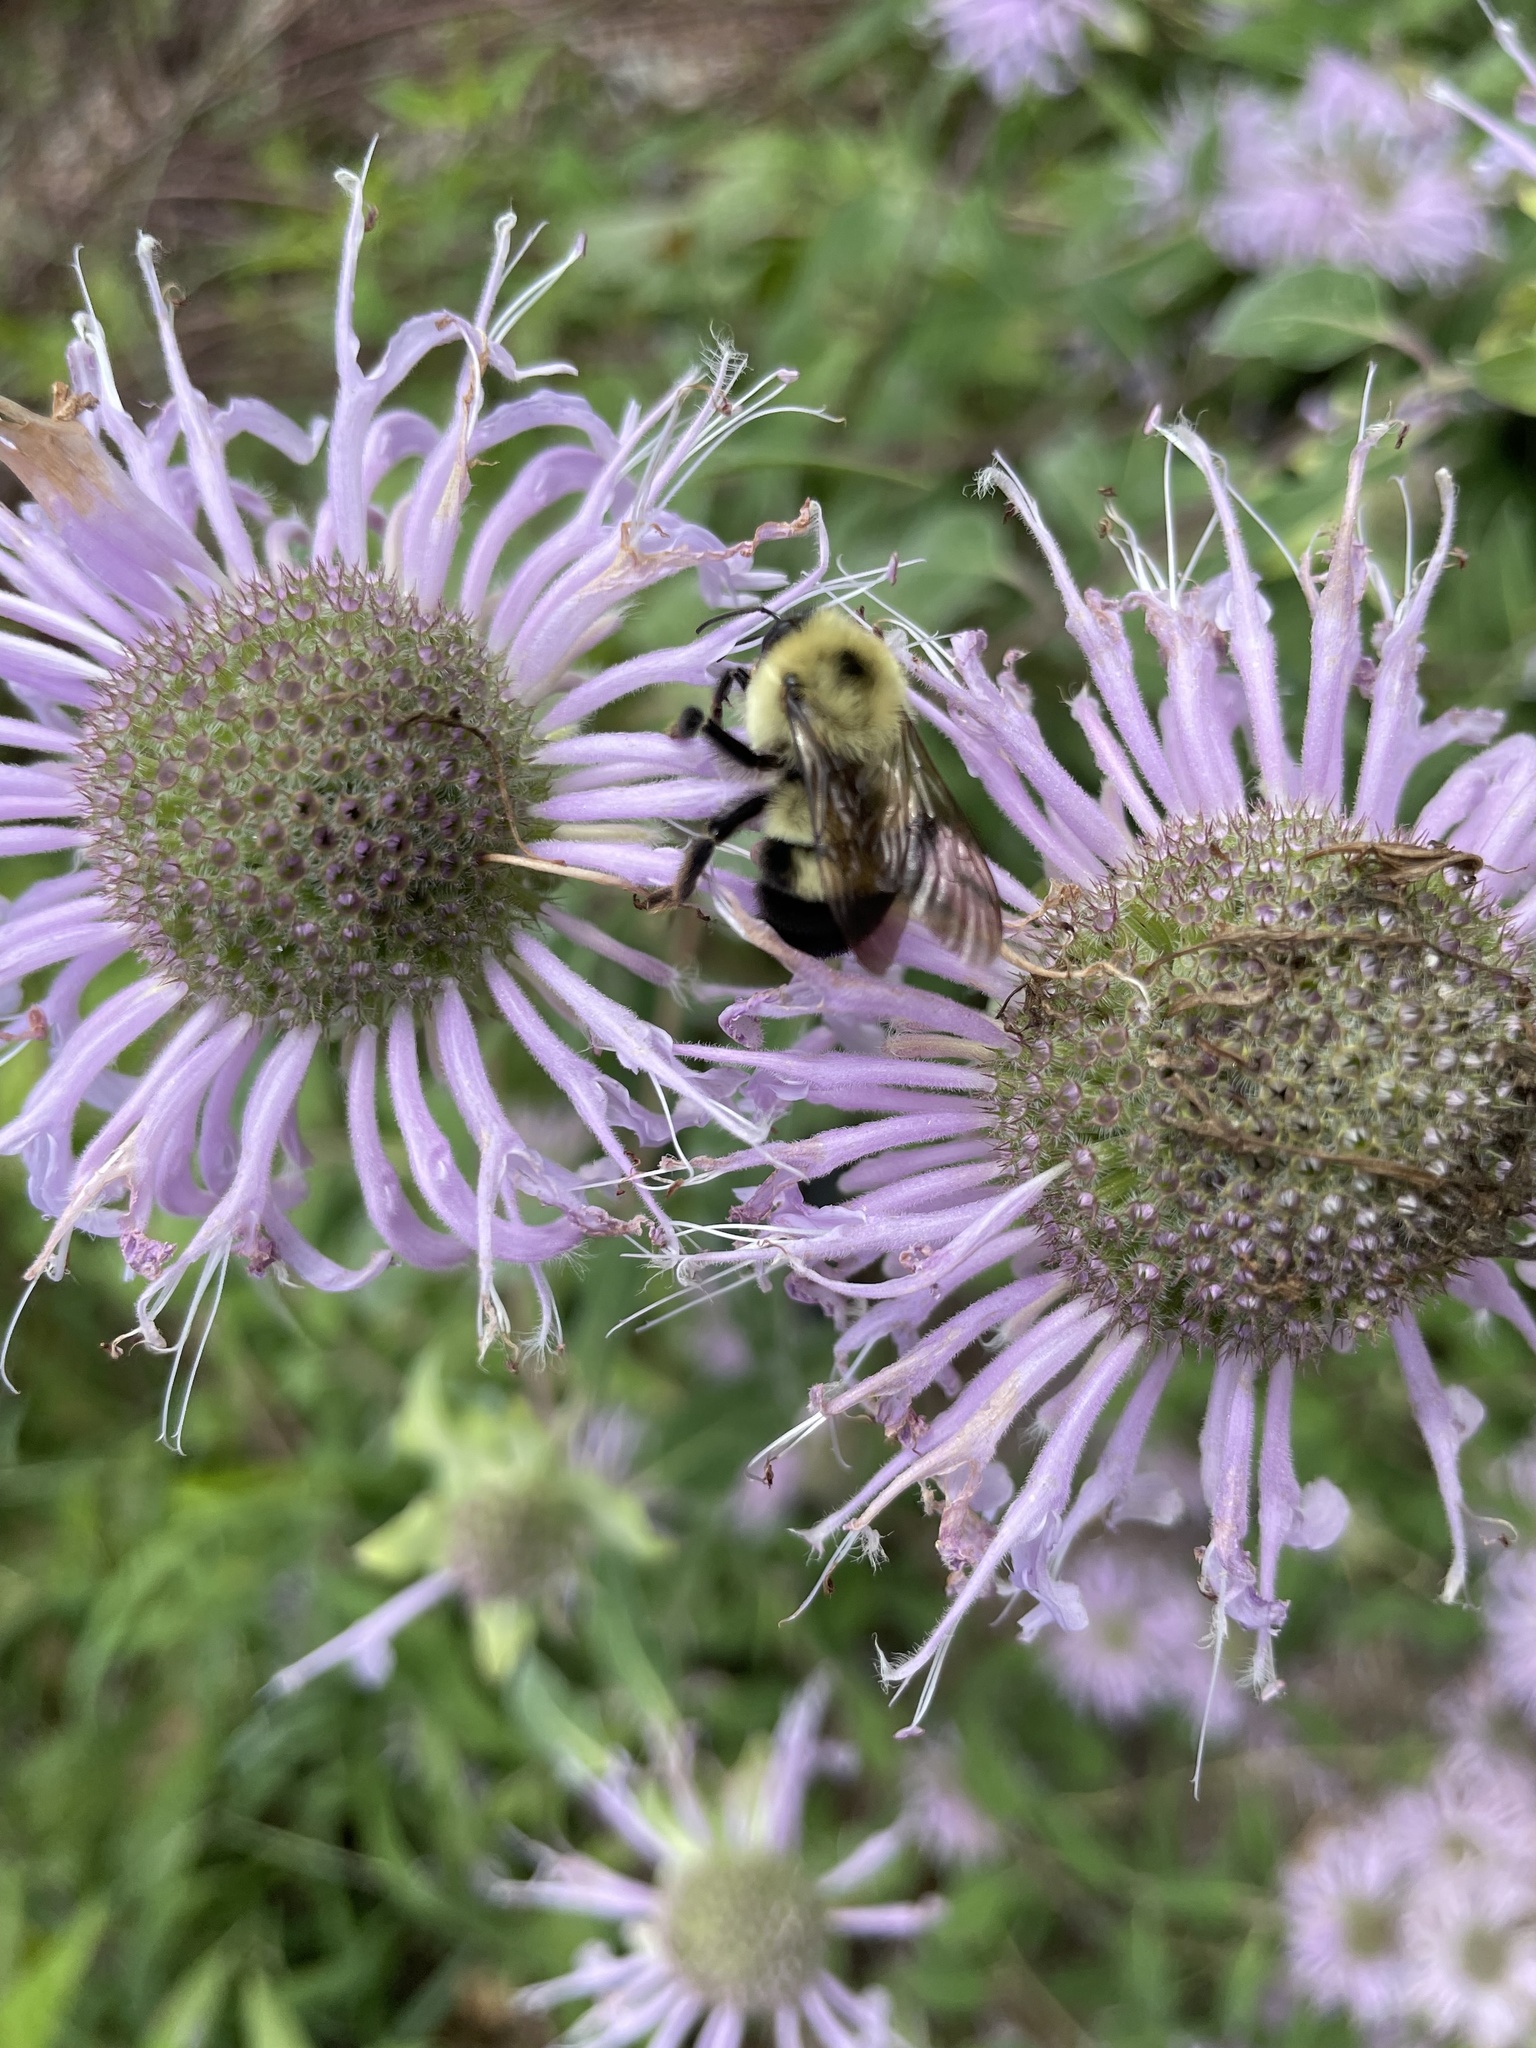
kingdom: Animalia
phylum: Arthropoda
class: Insecta
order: Hymenoptera
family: Apidae
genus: Bombus
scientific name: Bombus bimaculatus
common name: Two-spotted bumble bee
